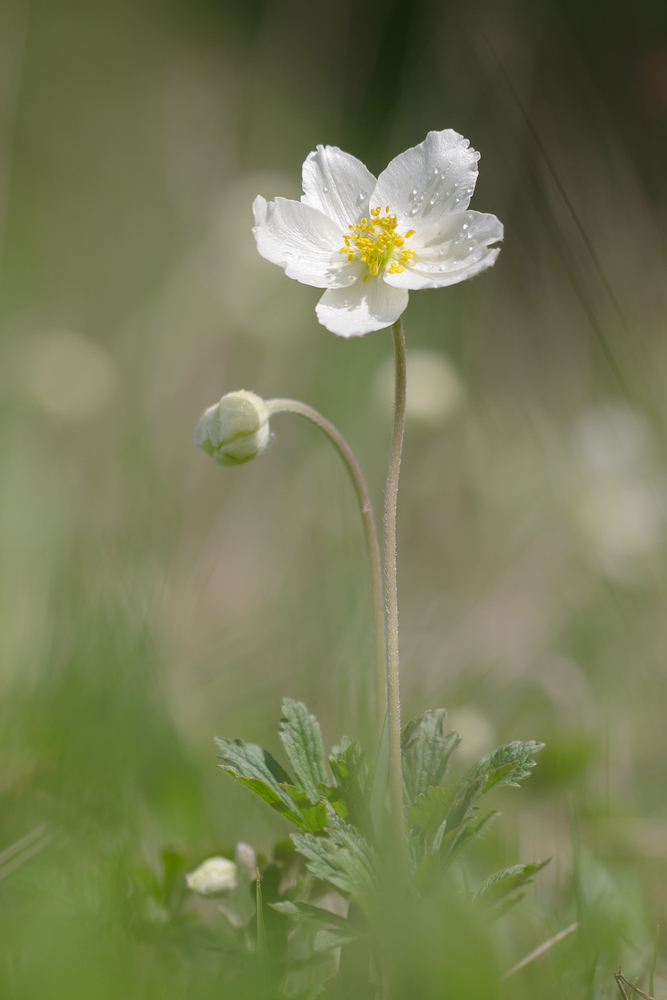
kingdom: Plantae
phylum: Tracheophyta
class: Magnoliopsida
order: Ranunculales
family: Ranunculaceae
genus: Anemone
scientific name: Anemone sylvestris
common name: Snowdrop anemone
